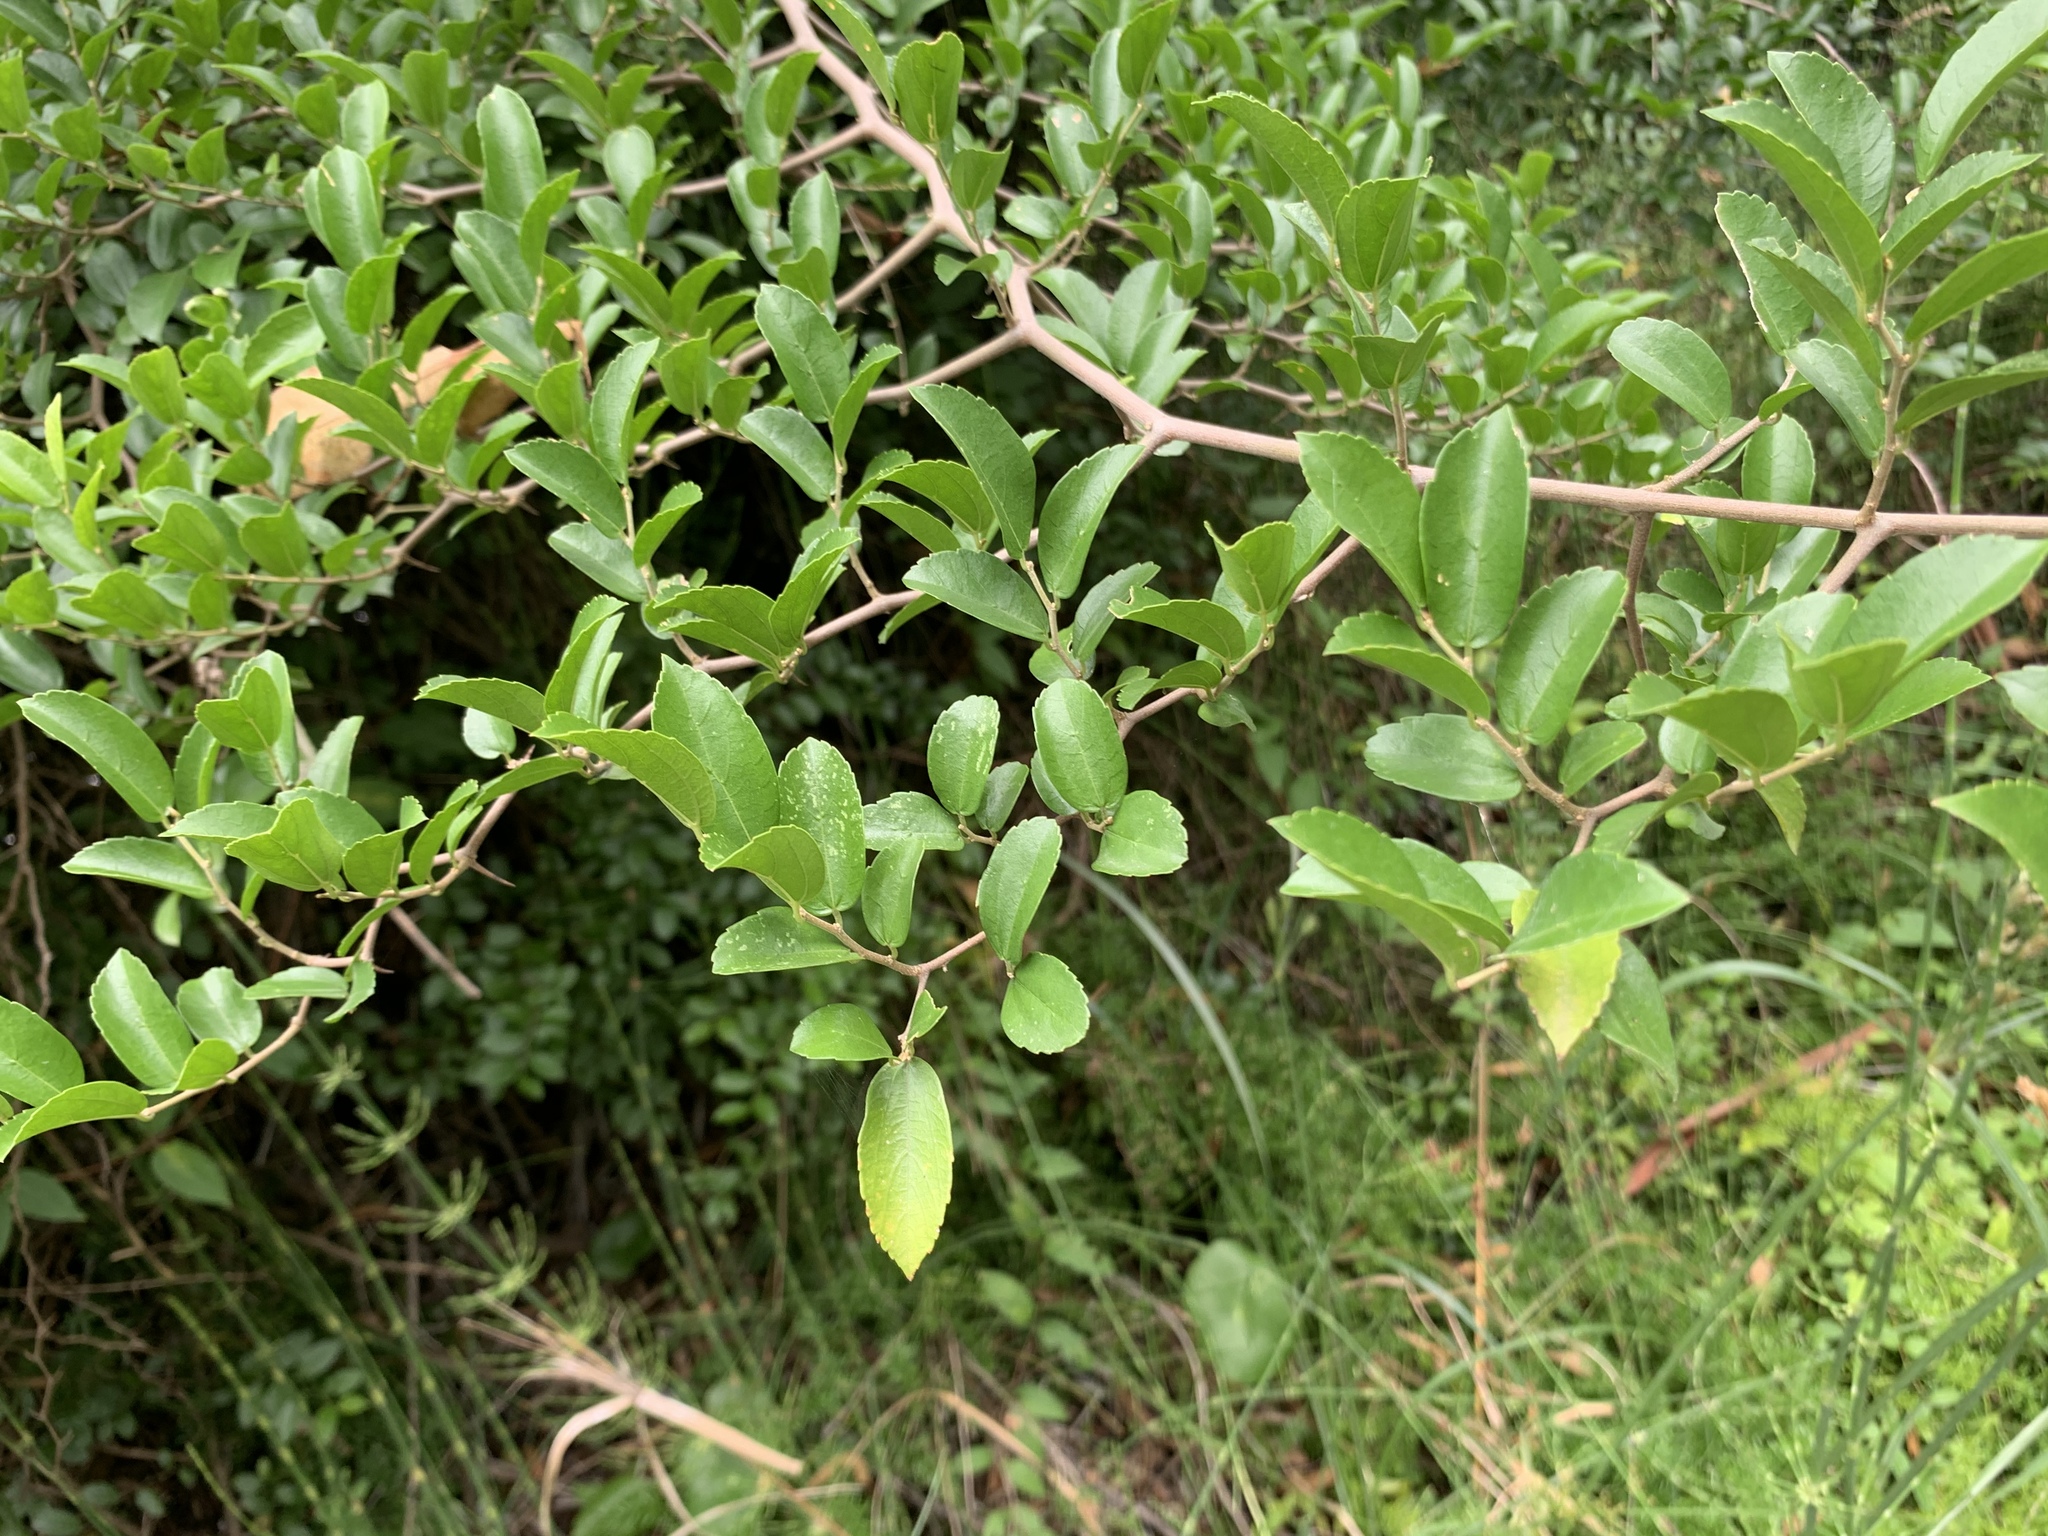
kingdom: Plantae
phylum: Tracheophyta
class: Magnoliopsida
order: Rosales
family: Cannabaceae
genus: Celtis
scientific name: Celtis iguanaea
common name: Iguana hackberry
